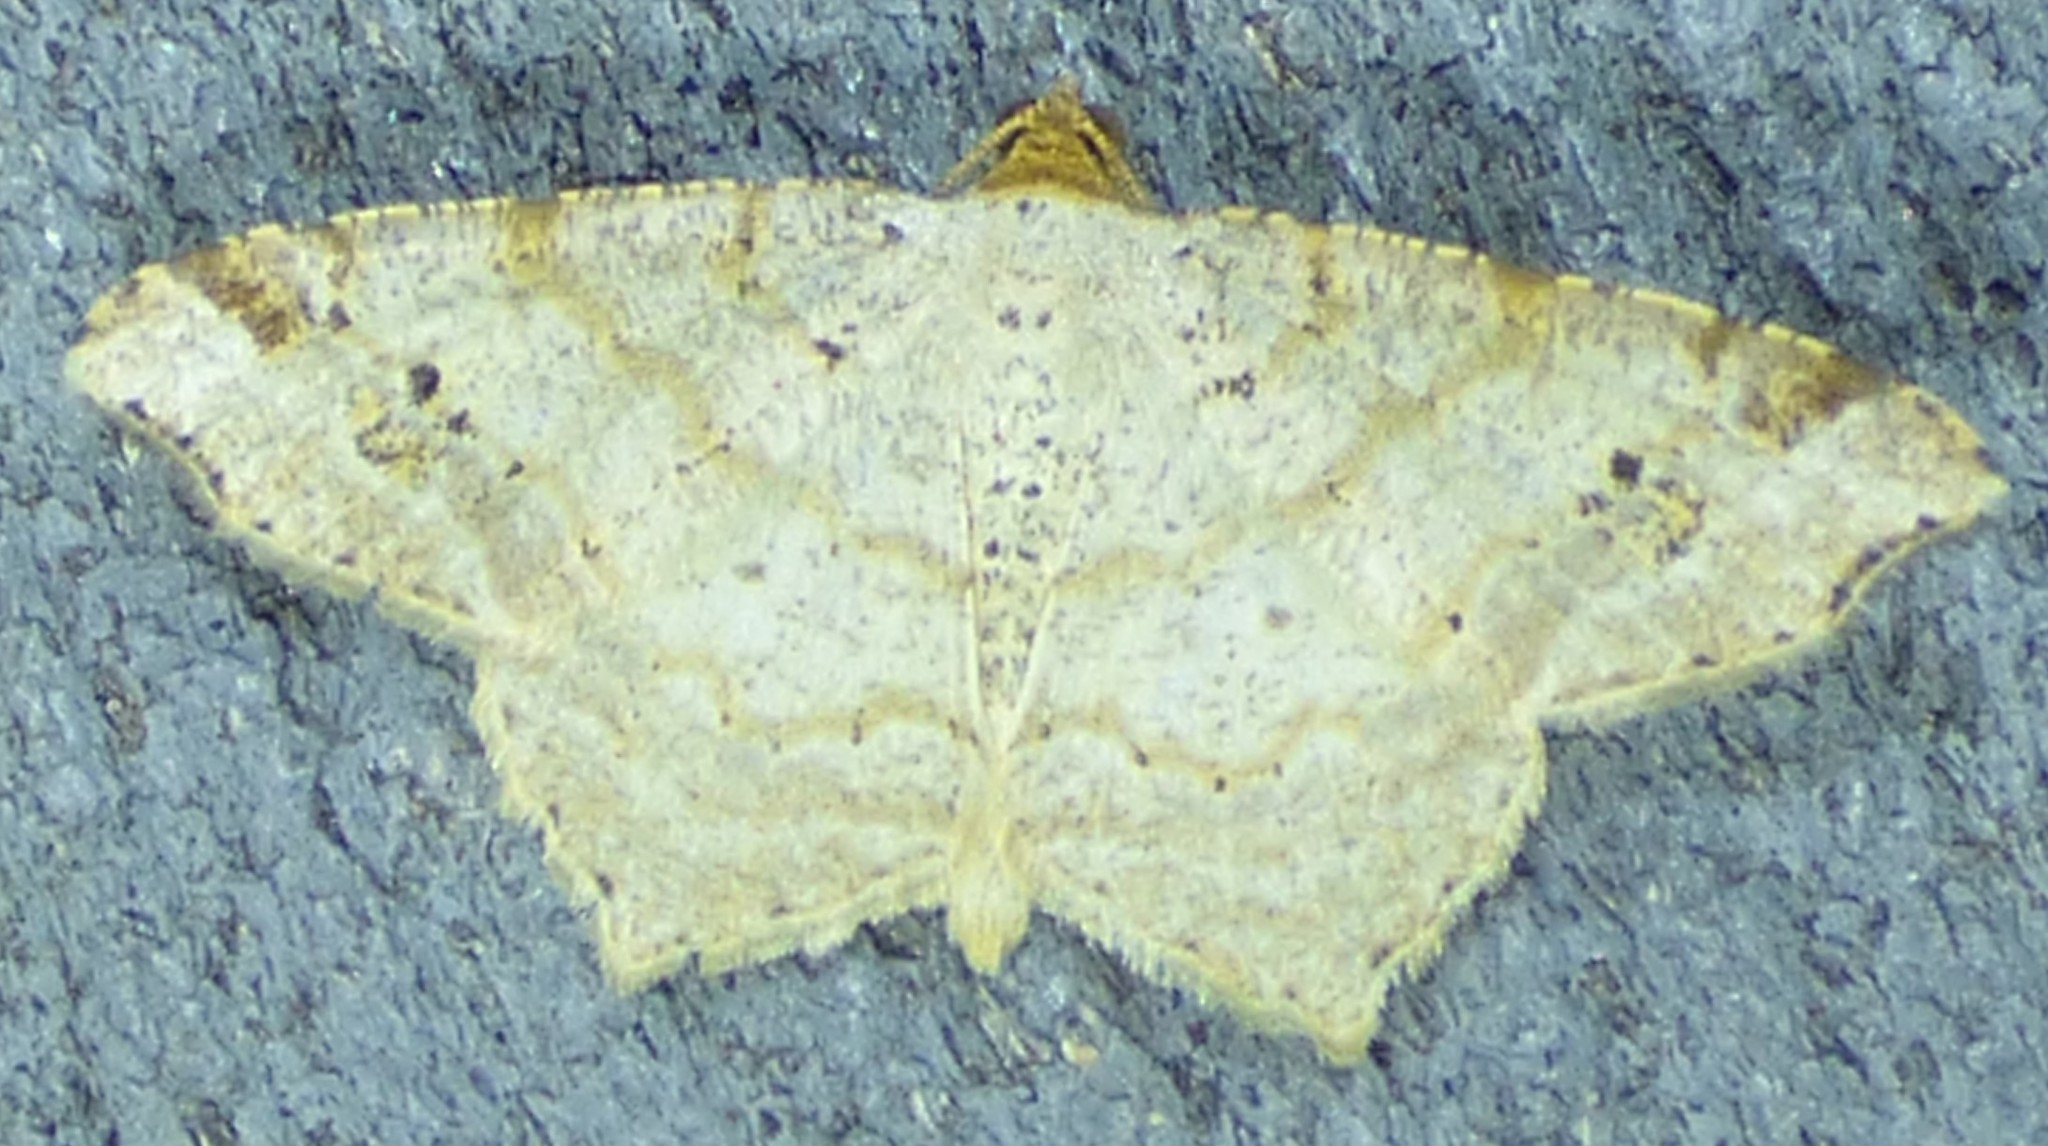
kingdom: Animalia
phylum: Arthropoda
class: Insecta
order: Lepidoptera
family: Geometridae
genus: Macaria
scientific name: Macaria aemulataria
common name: Common angle
